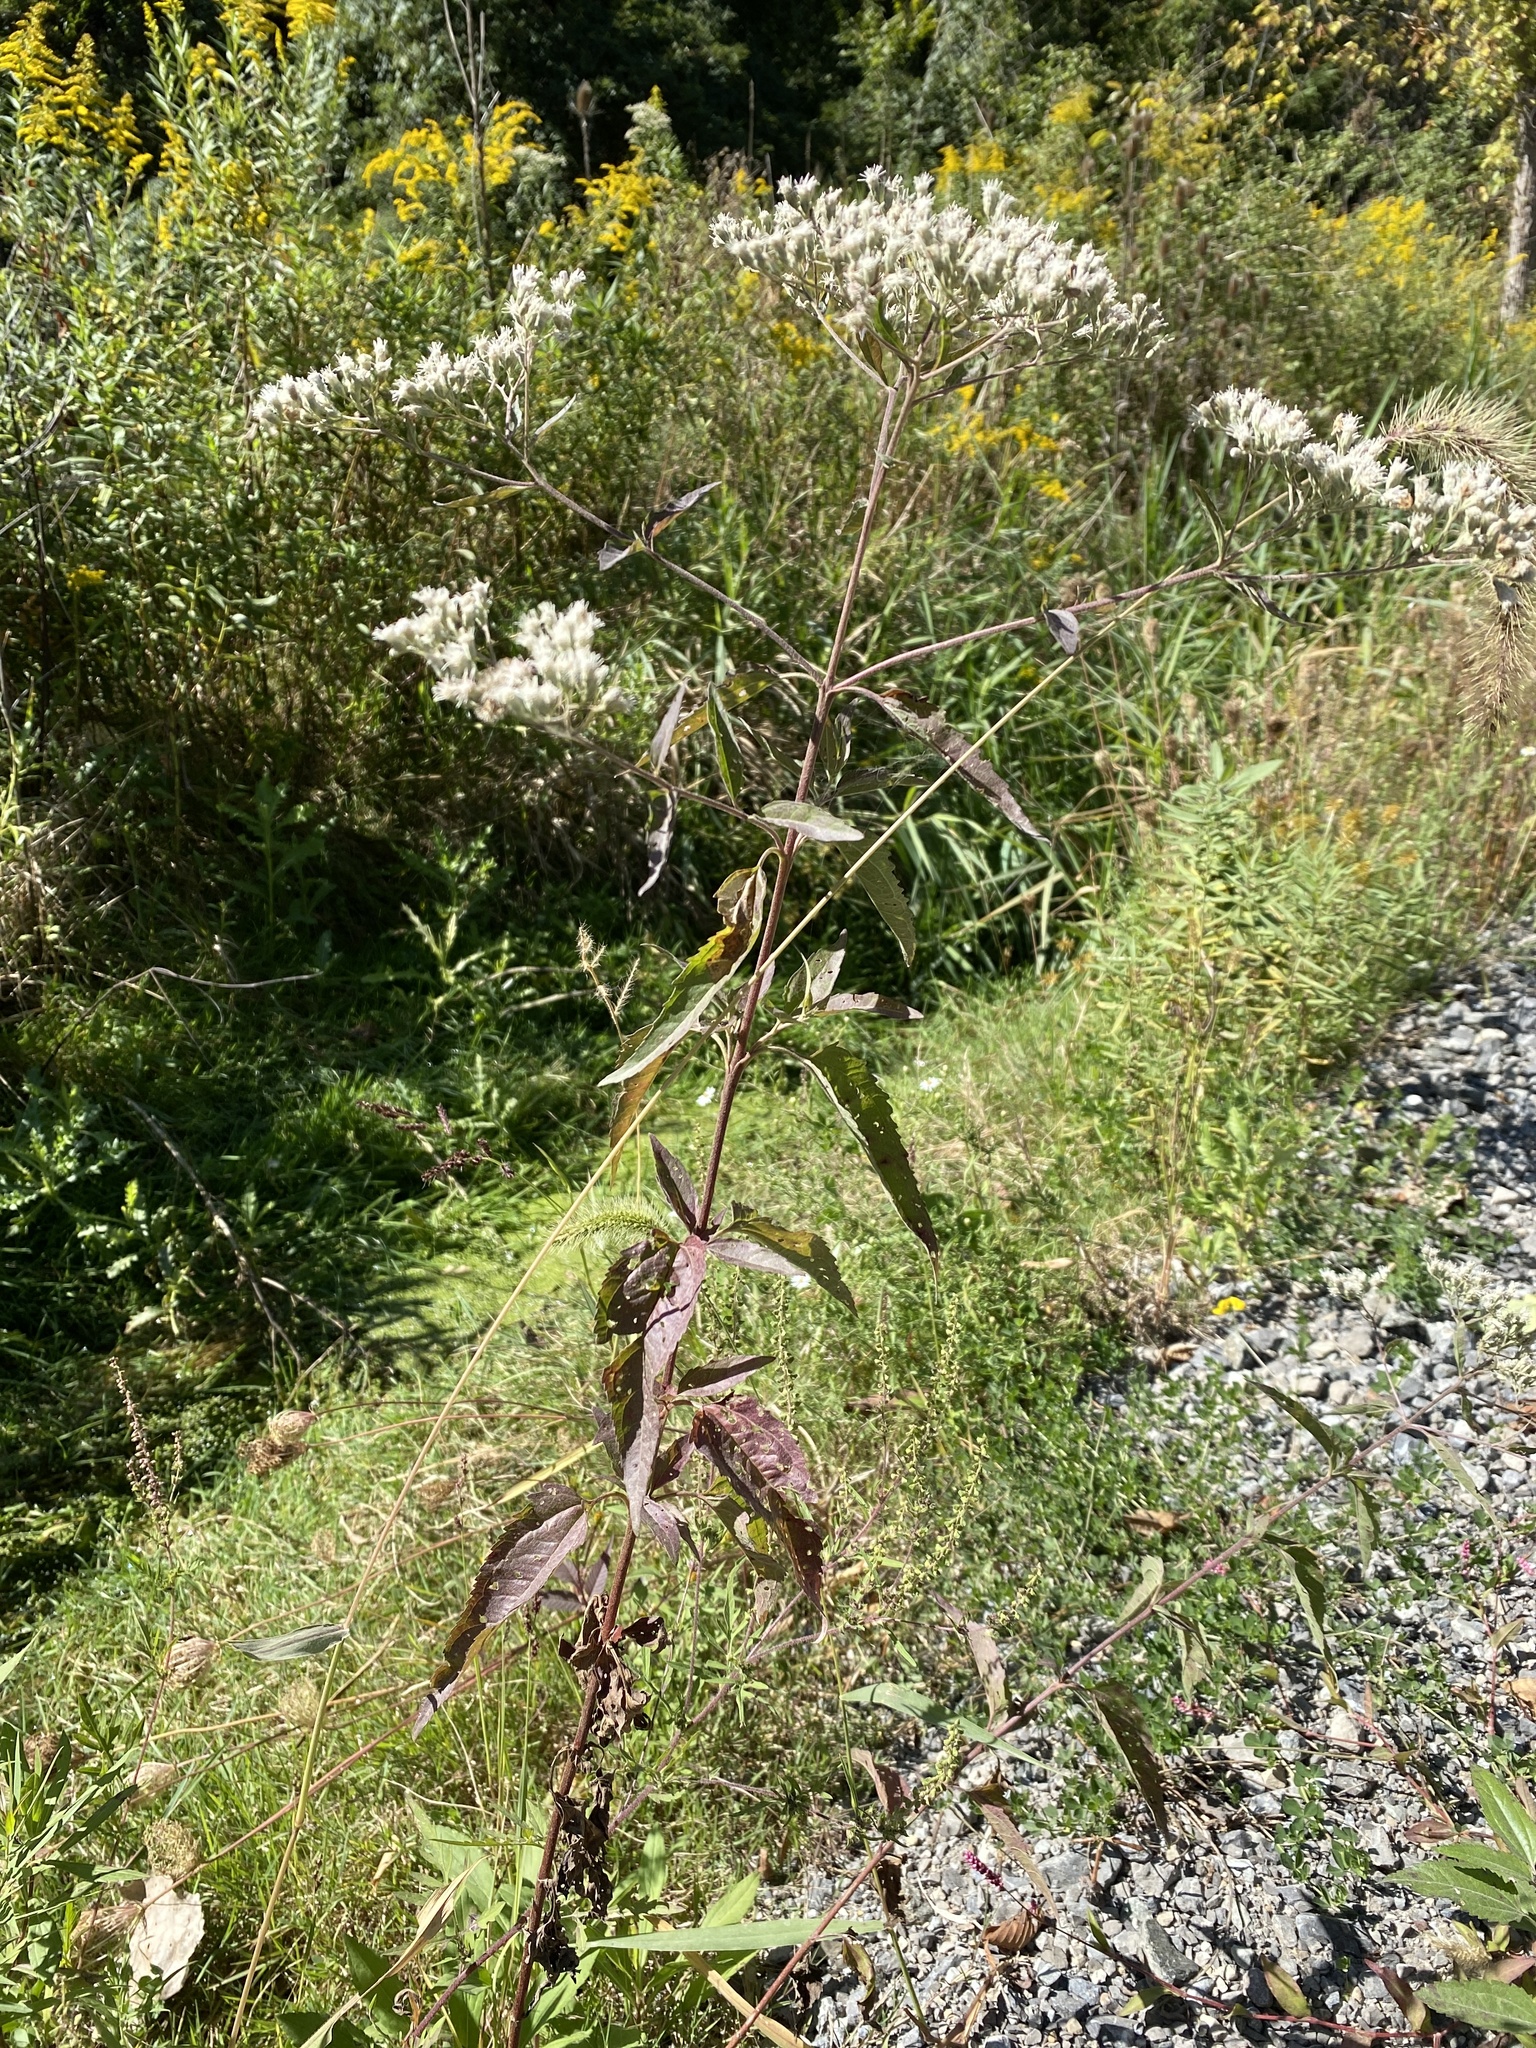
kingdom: Plantae
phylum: Tracheophyta
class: Magnoliopsida
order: Asterales
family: Asteraceae
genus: Eupatorium
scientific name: Eupatorium serotinum
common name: Late boneset
